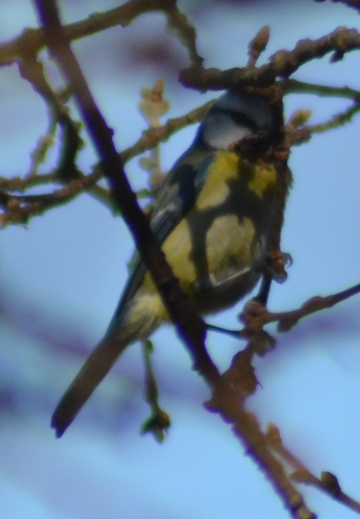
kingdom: Animalia
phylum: Chordata
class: Aves
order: Passeriformes
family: Paridae
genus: Cyanistes
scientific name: Cyanistes caeruleus
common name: Eurasian blue tit
